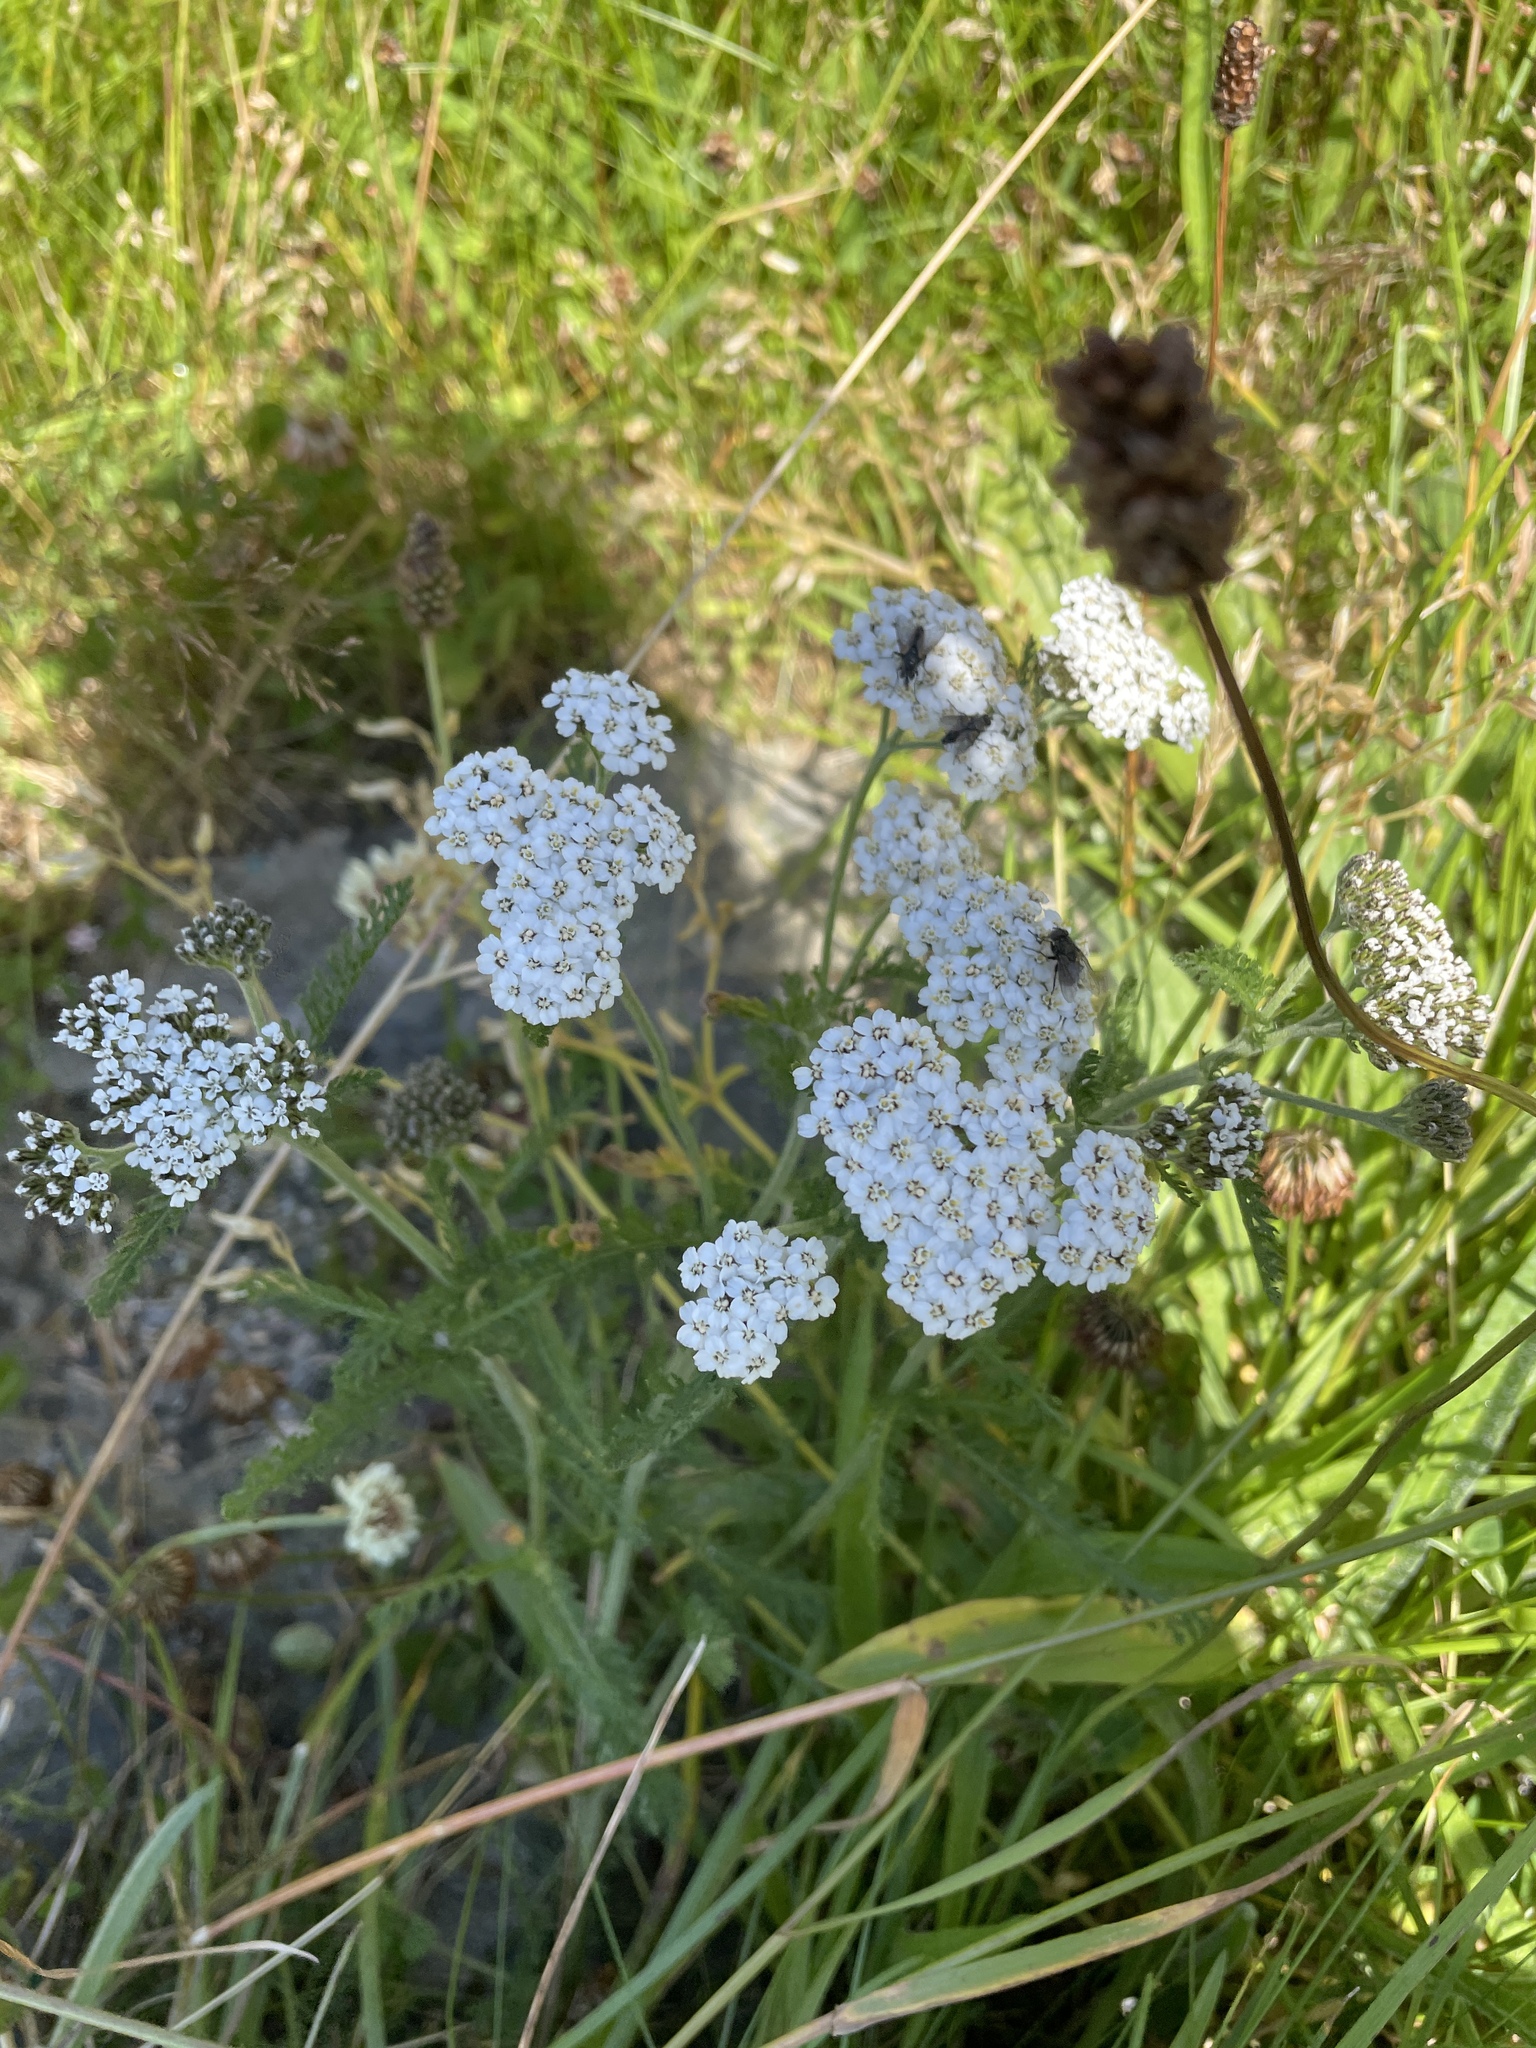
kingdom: Plantae
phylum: Tracheophyta
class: Magnoliopsida
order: Asterales
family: Asteraceae
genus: Achillea
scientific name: Achillea millefolium
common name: Yarrow
